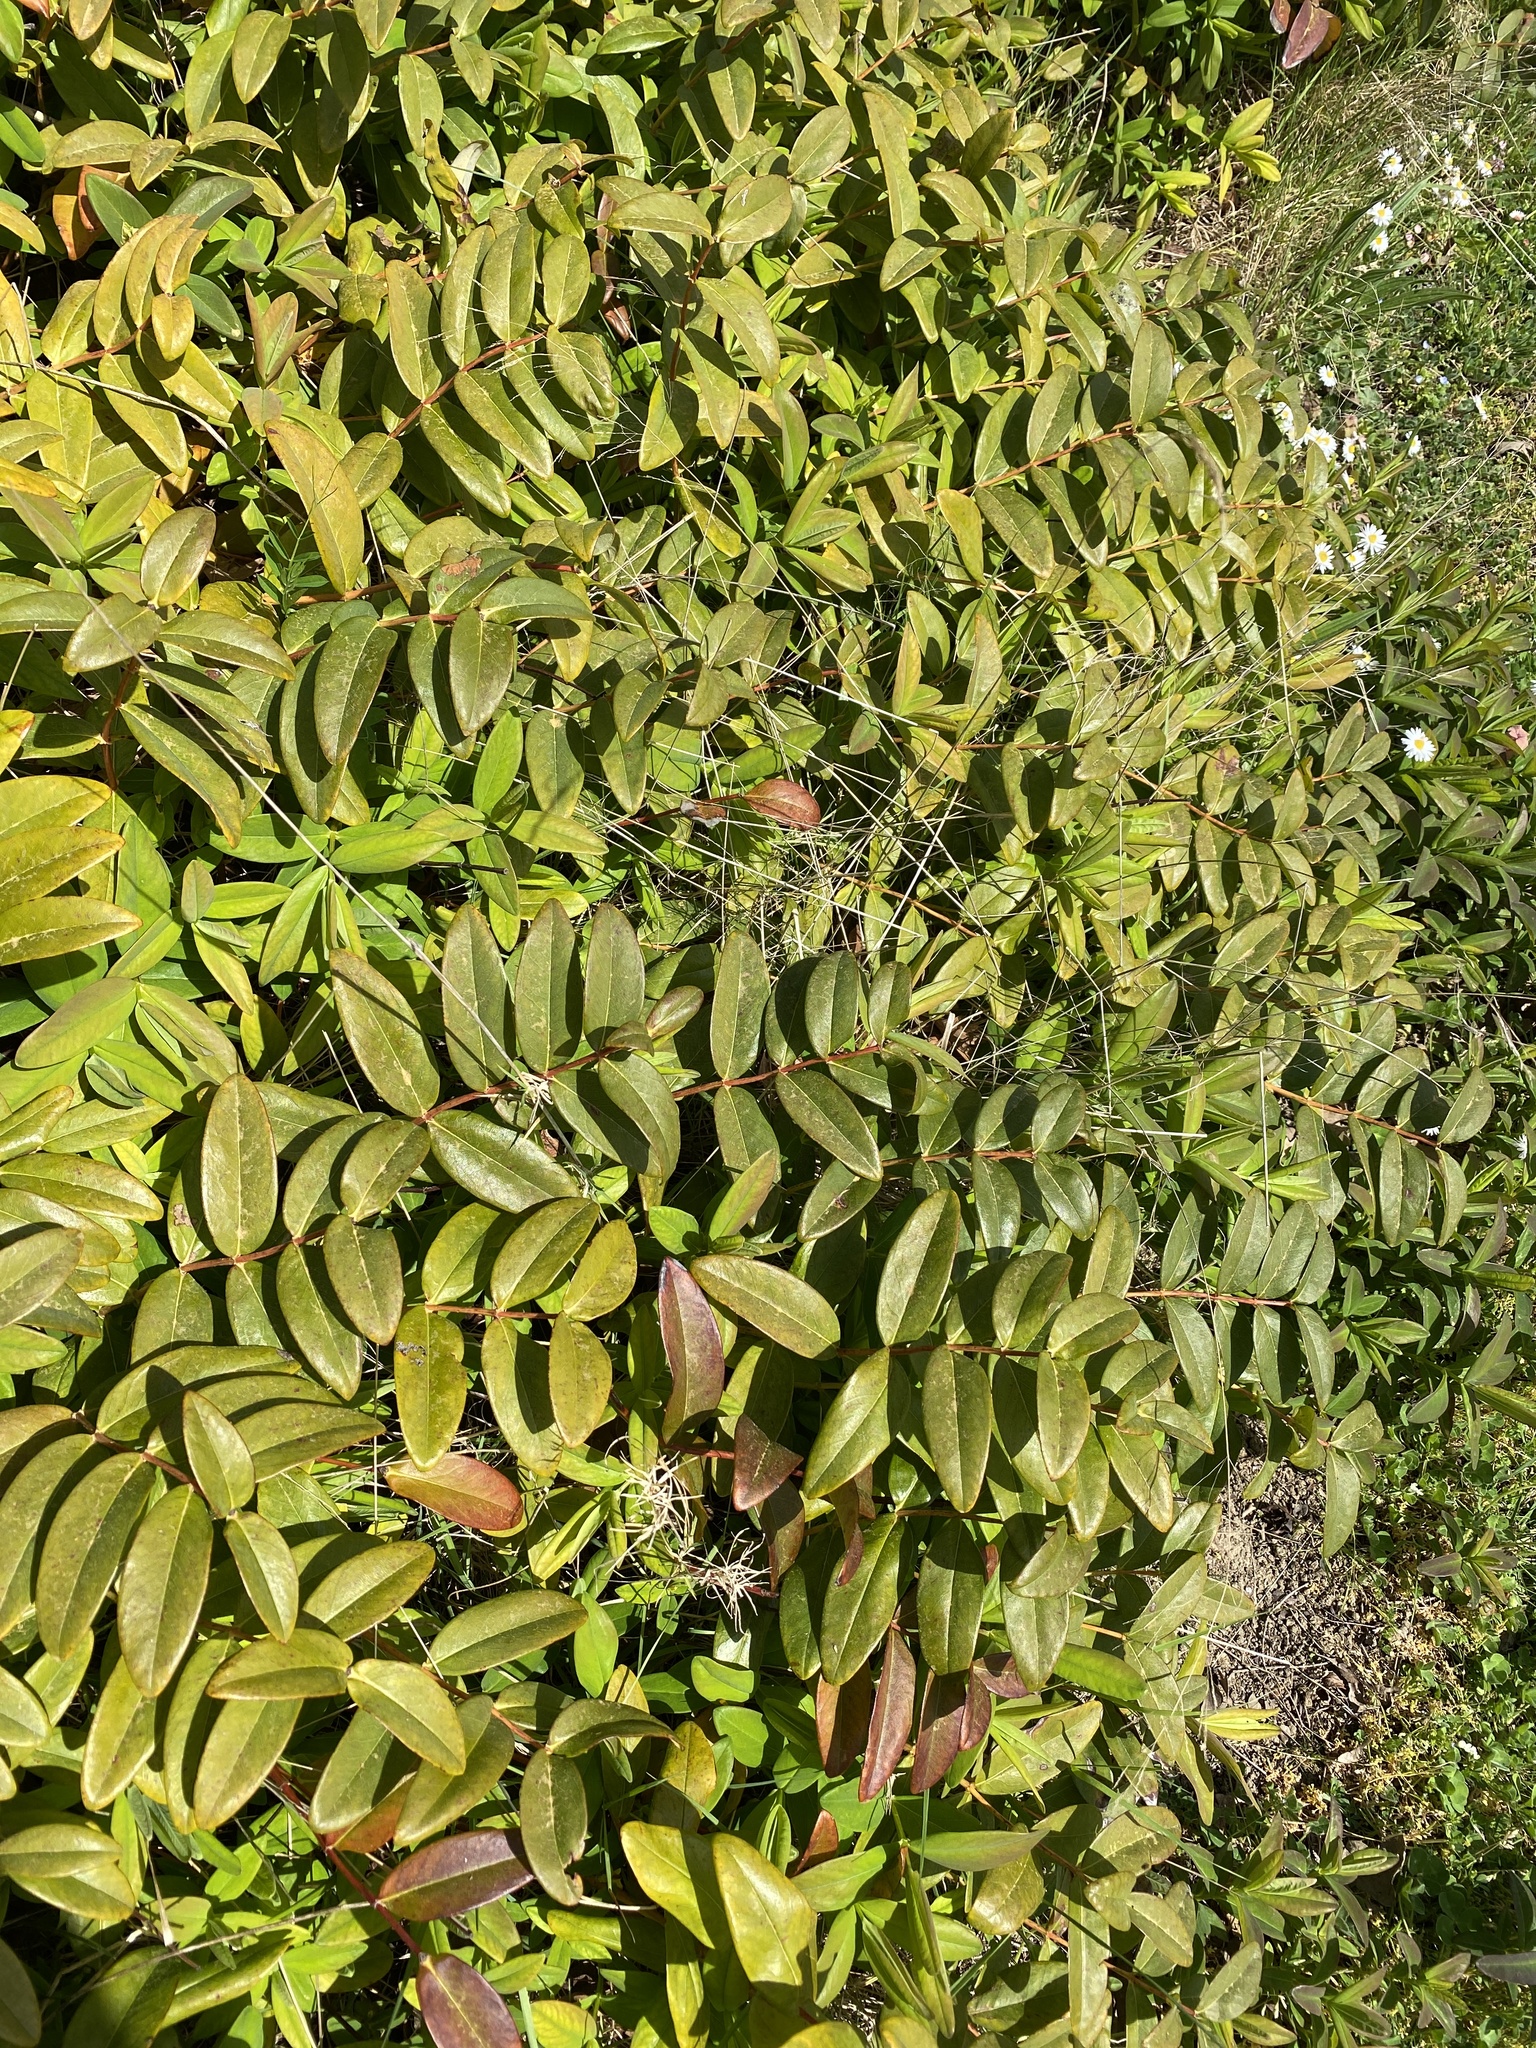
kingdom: Plantae
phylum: Tracheophyta
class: Magnoliopsida
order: Malpighiales
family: Hypericaceae
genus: Hypericum
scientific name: Hypericum calycinum
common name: Rose-of-sharon
